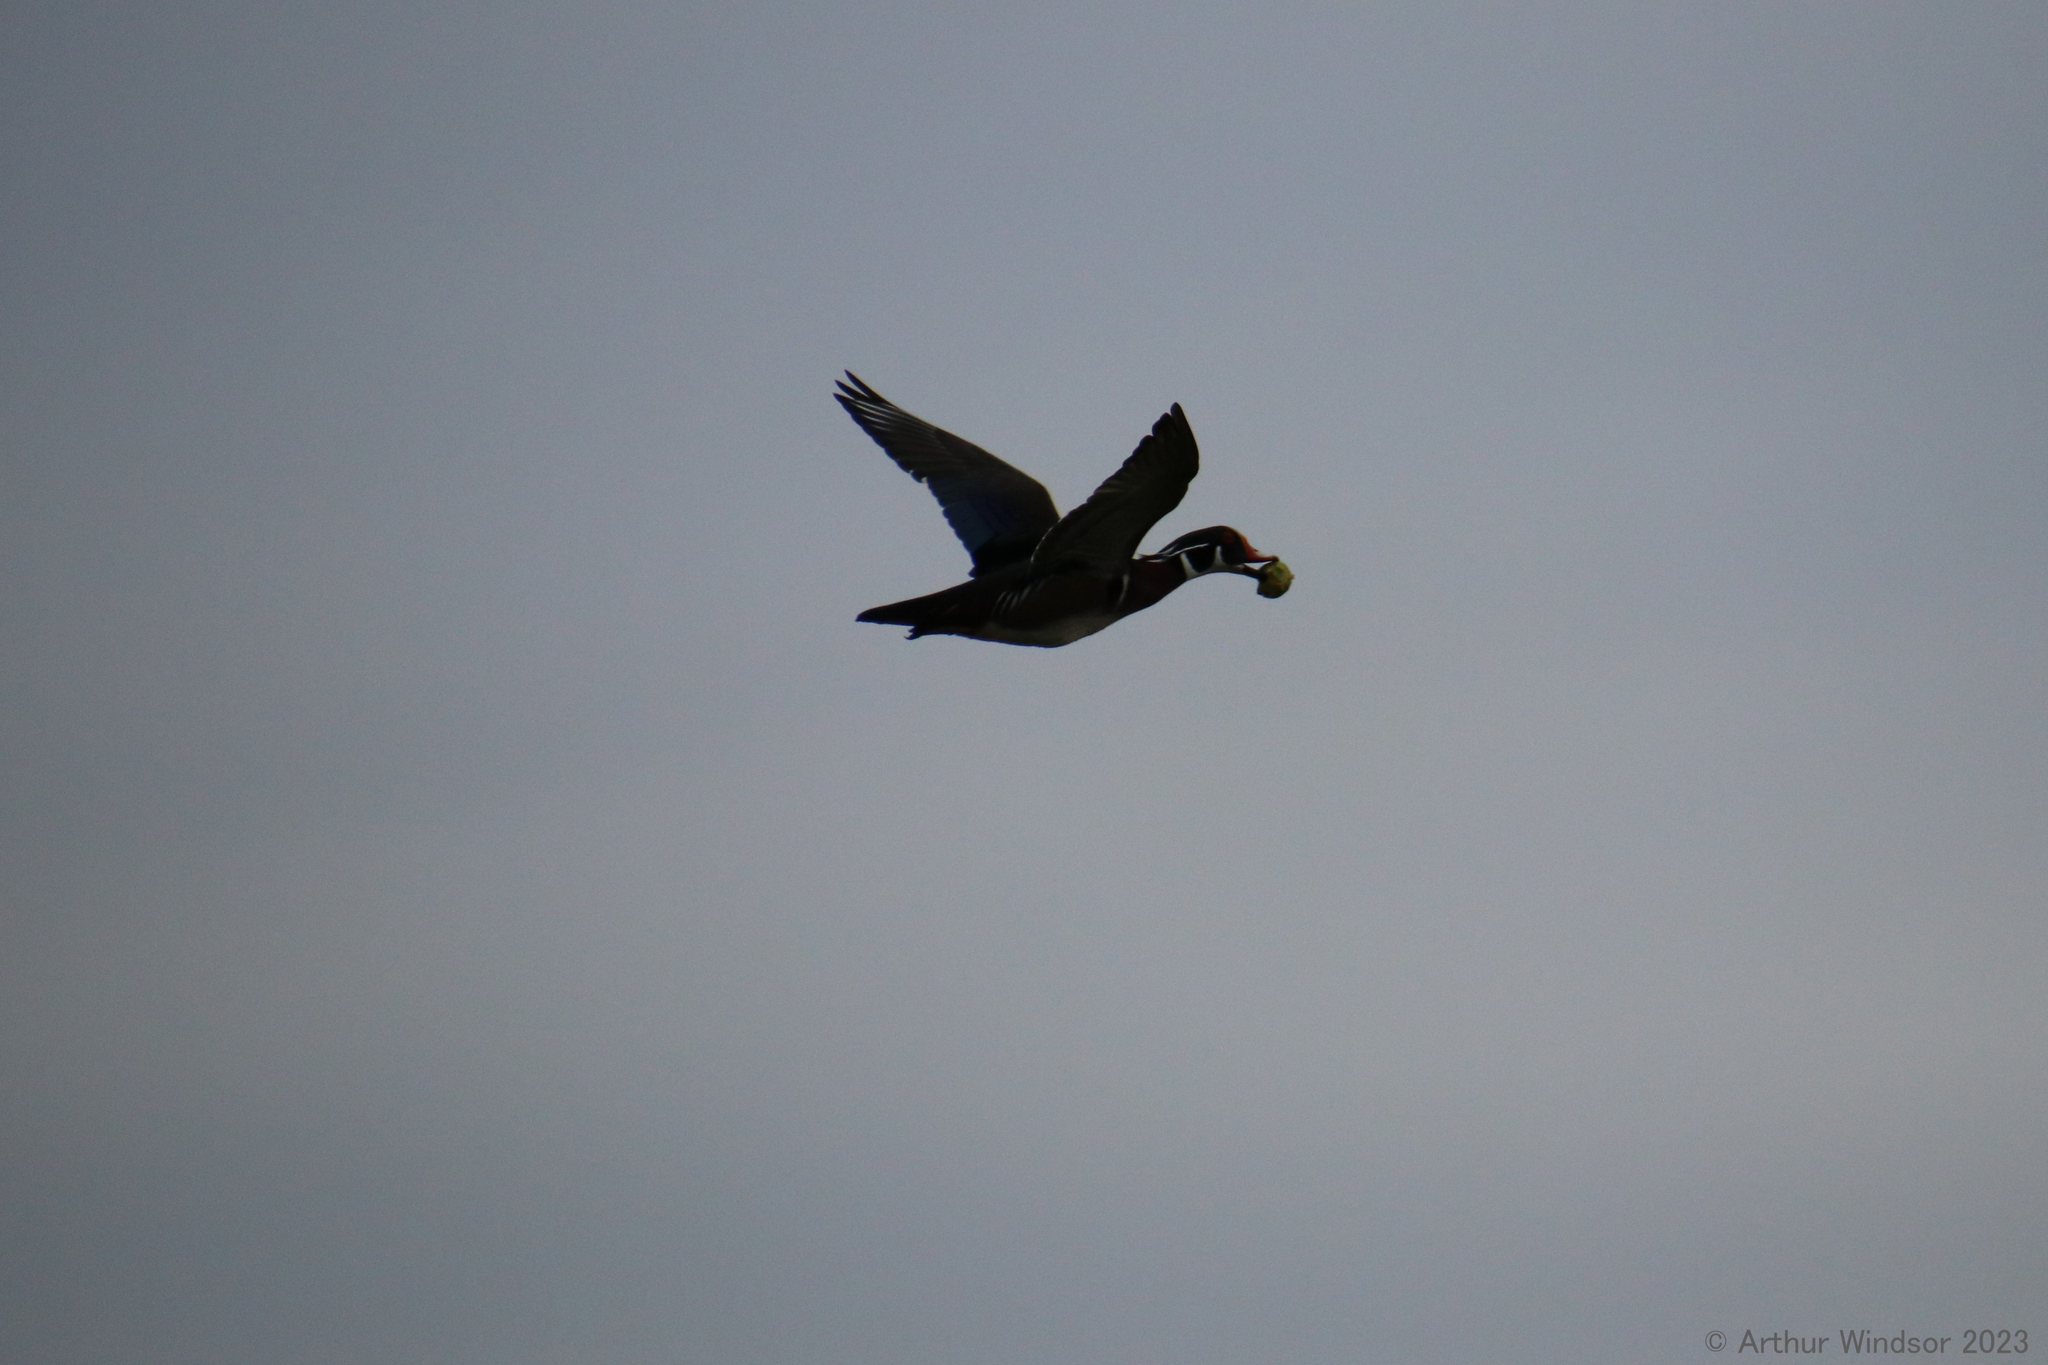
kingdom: Animalia
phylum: Chordata
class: Aves
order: Anseriformes
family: Anatidae
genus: Aix
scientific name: Aix sponsa
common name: Wood duck
